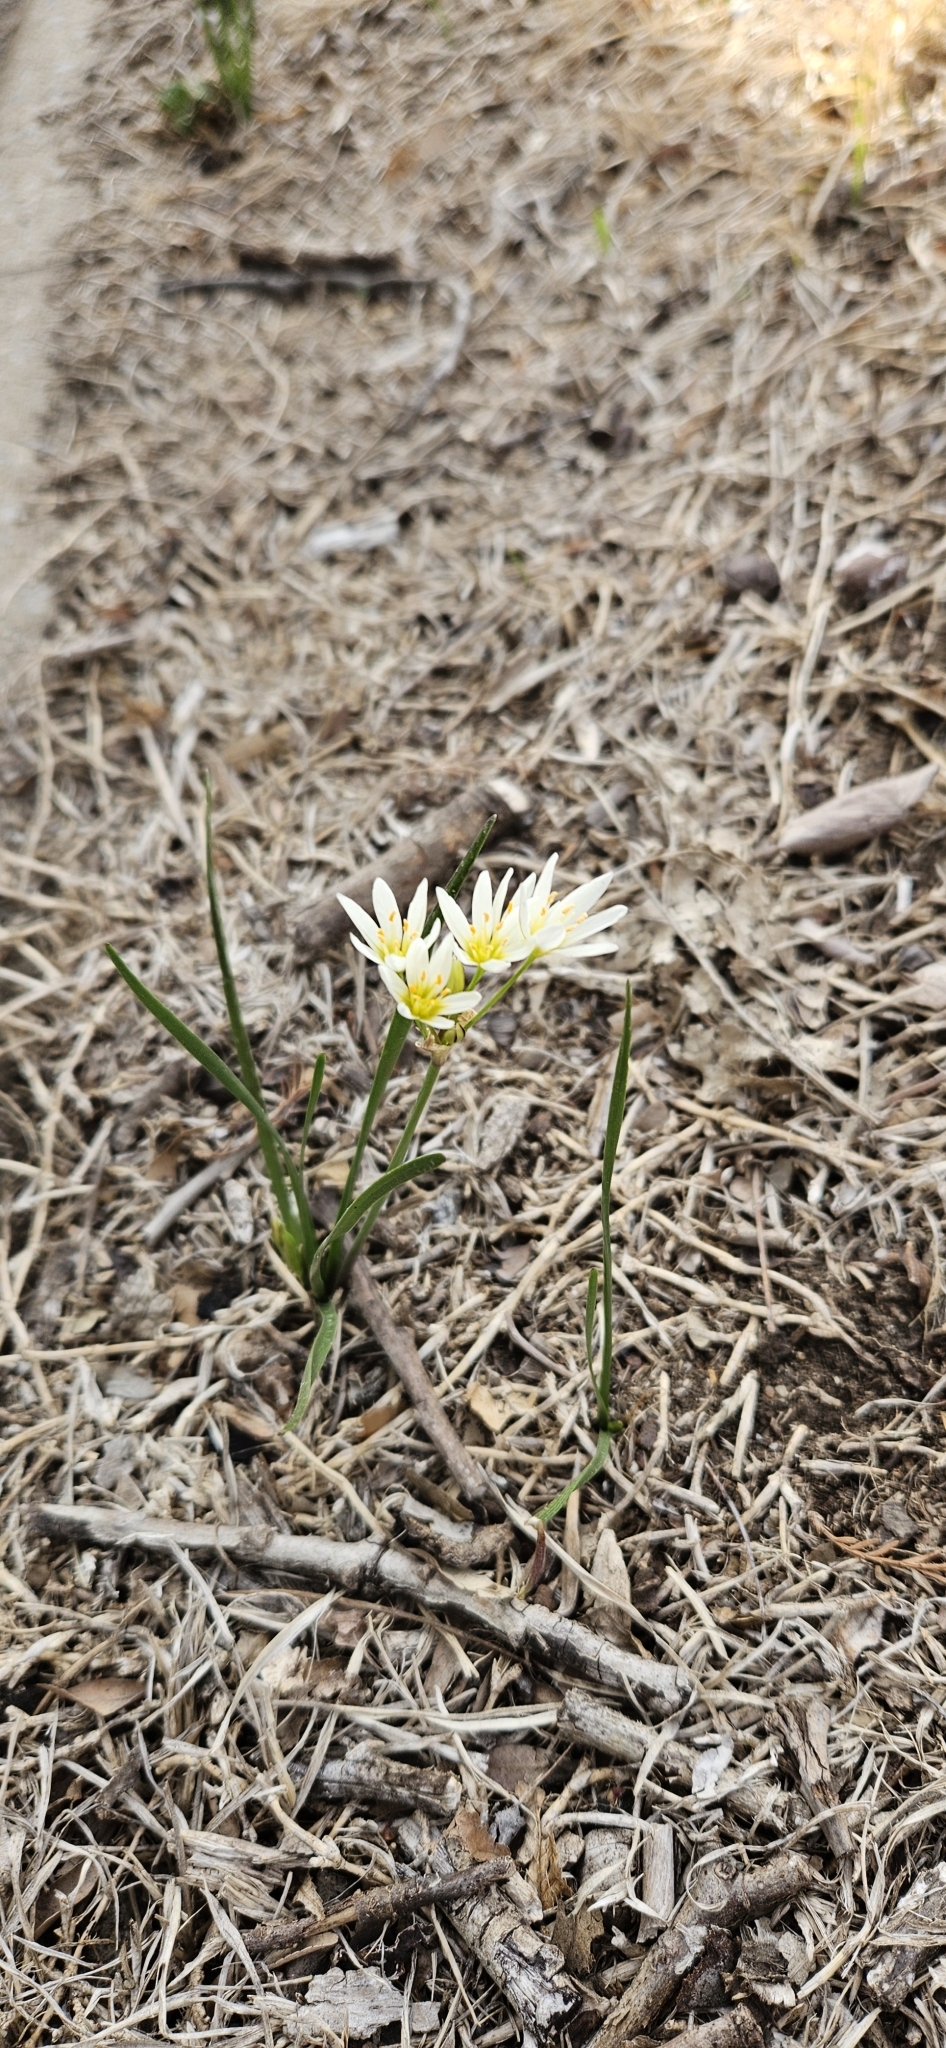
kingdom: Plantae
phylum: Tracheophyta
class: Liliopsida
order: Asparagales
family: Amaryllidaceae
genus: Nothoscordum
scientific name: Nothoscordum bivalve
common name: Crow-poison
